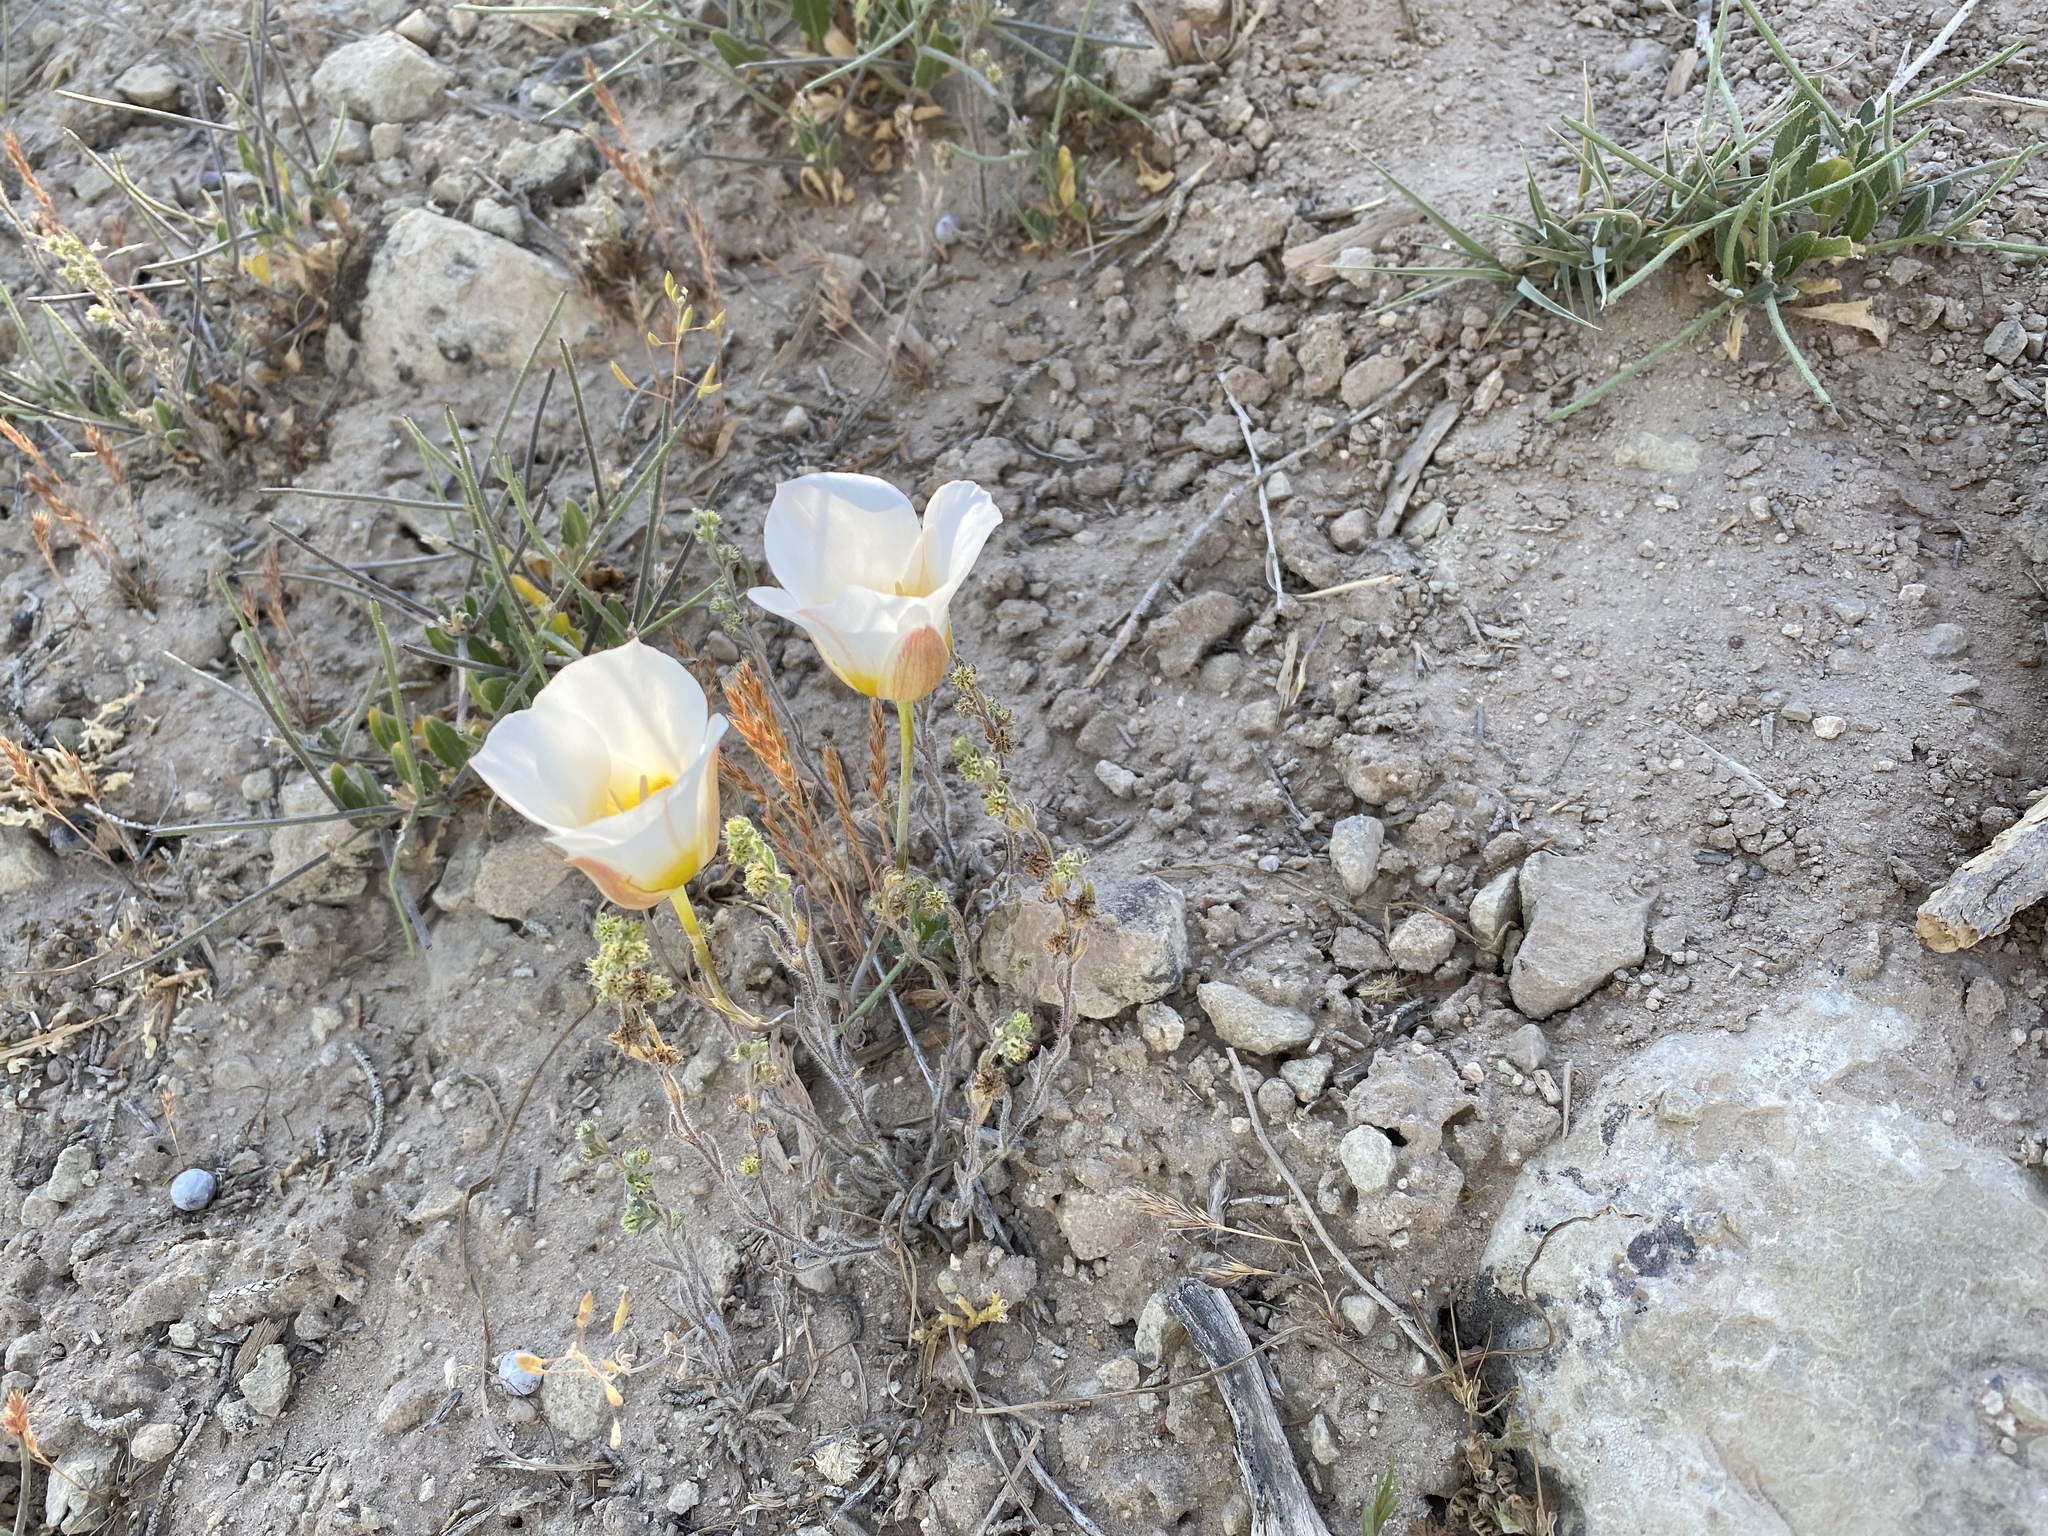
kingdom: Plantae
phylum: Tracheophyta
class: Liliopsida
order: Liliales
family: Liliaceae
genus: Calochortus
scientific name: Calochortus nuttallii
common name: Sego-lily
